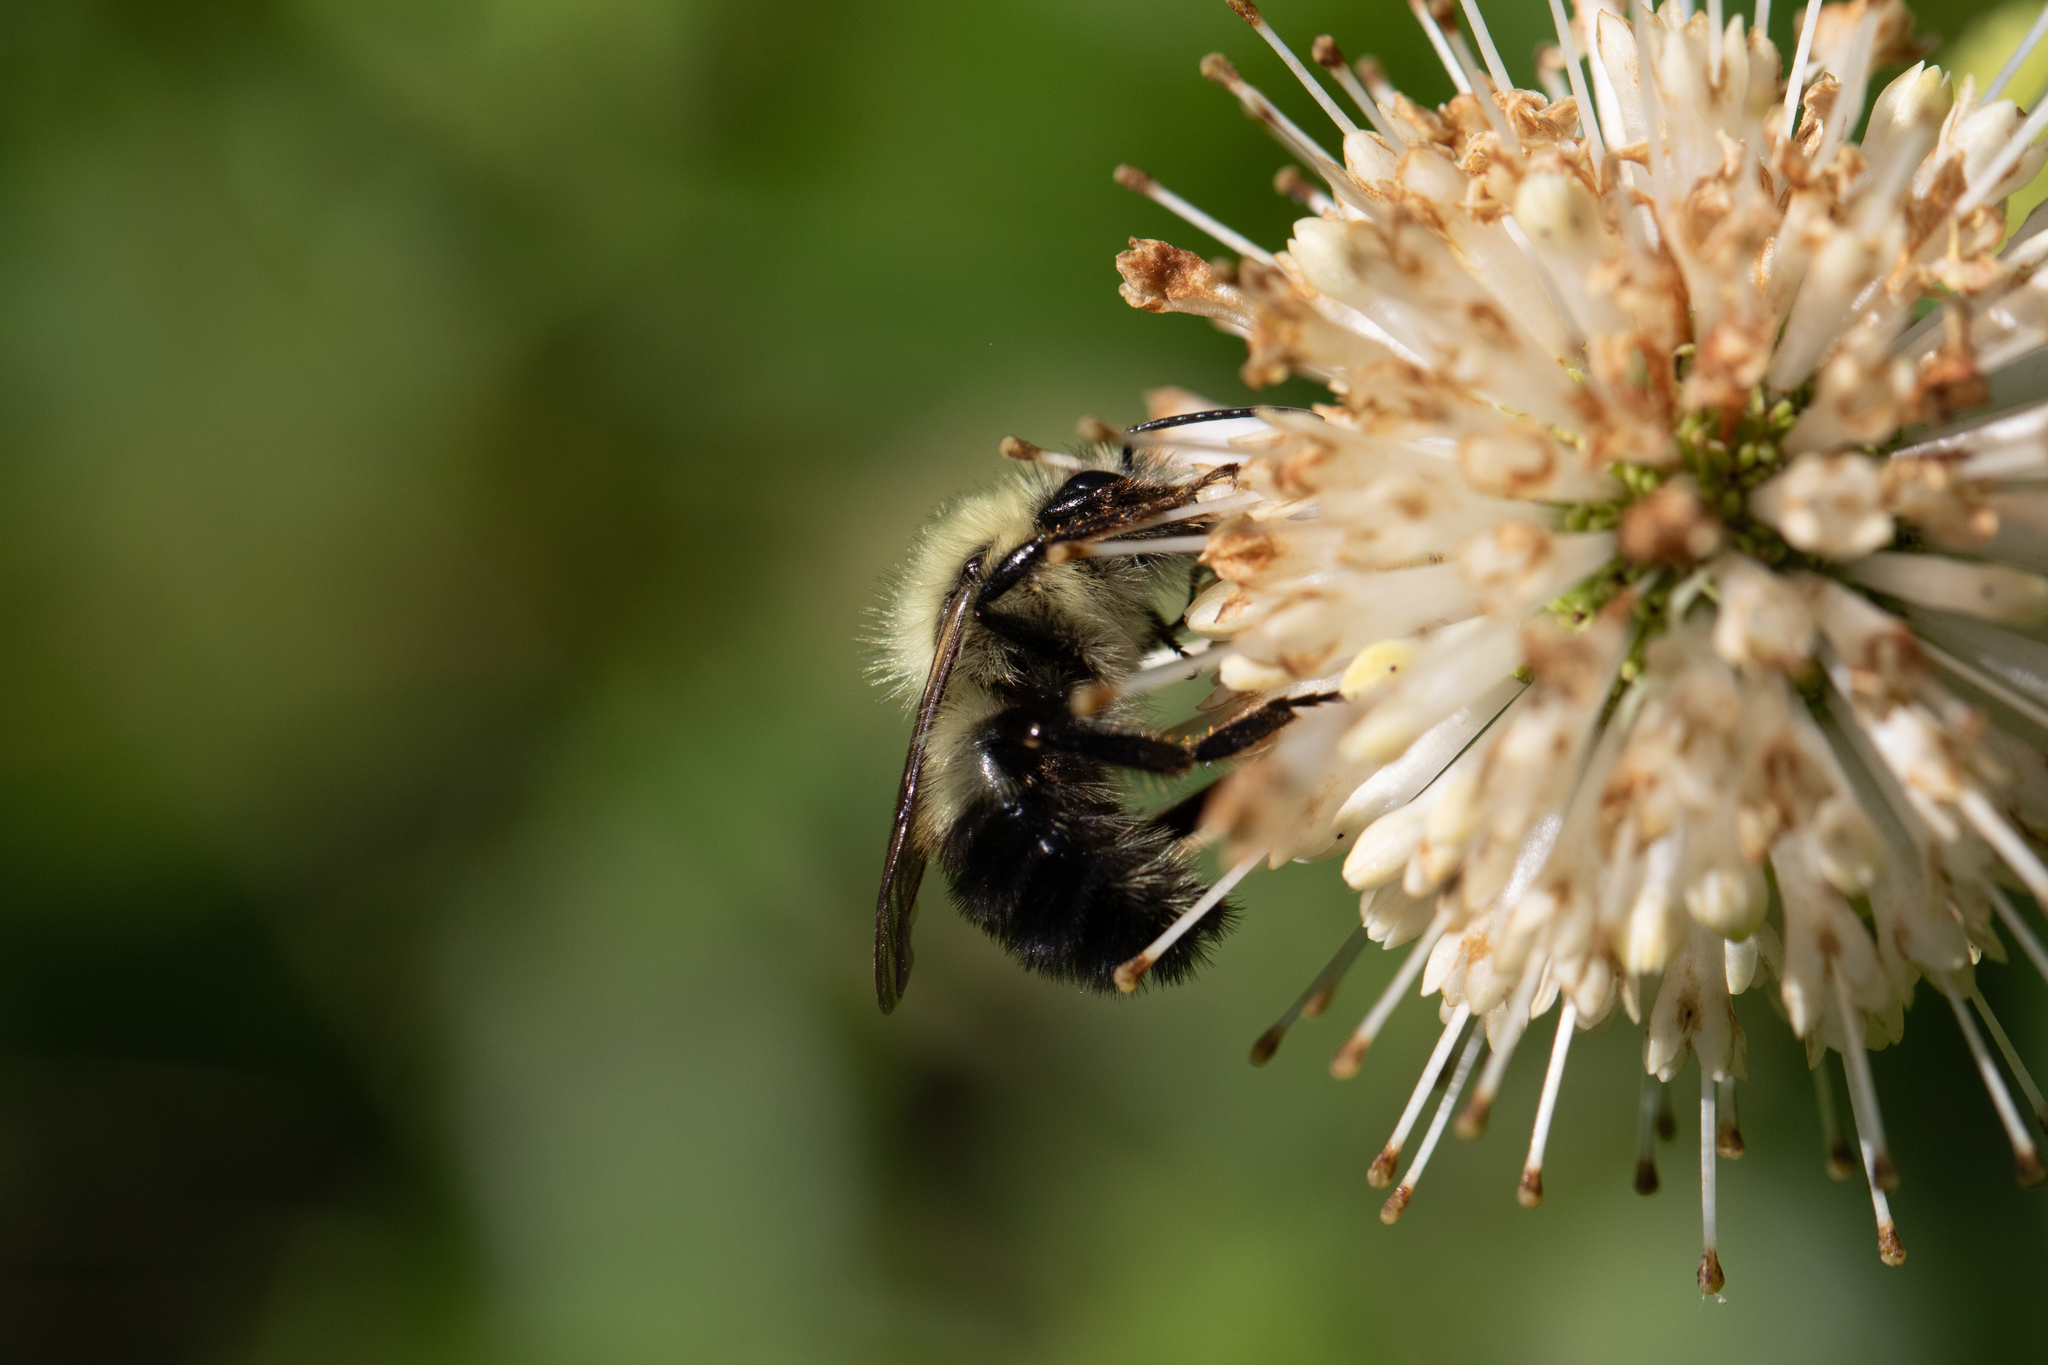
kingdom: Animalia
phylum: Arthropoda
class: Insecta
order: Hymenoptera
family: Apidae
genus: Pyrobombus
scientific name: Pyrobombus
